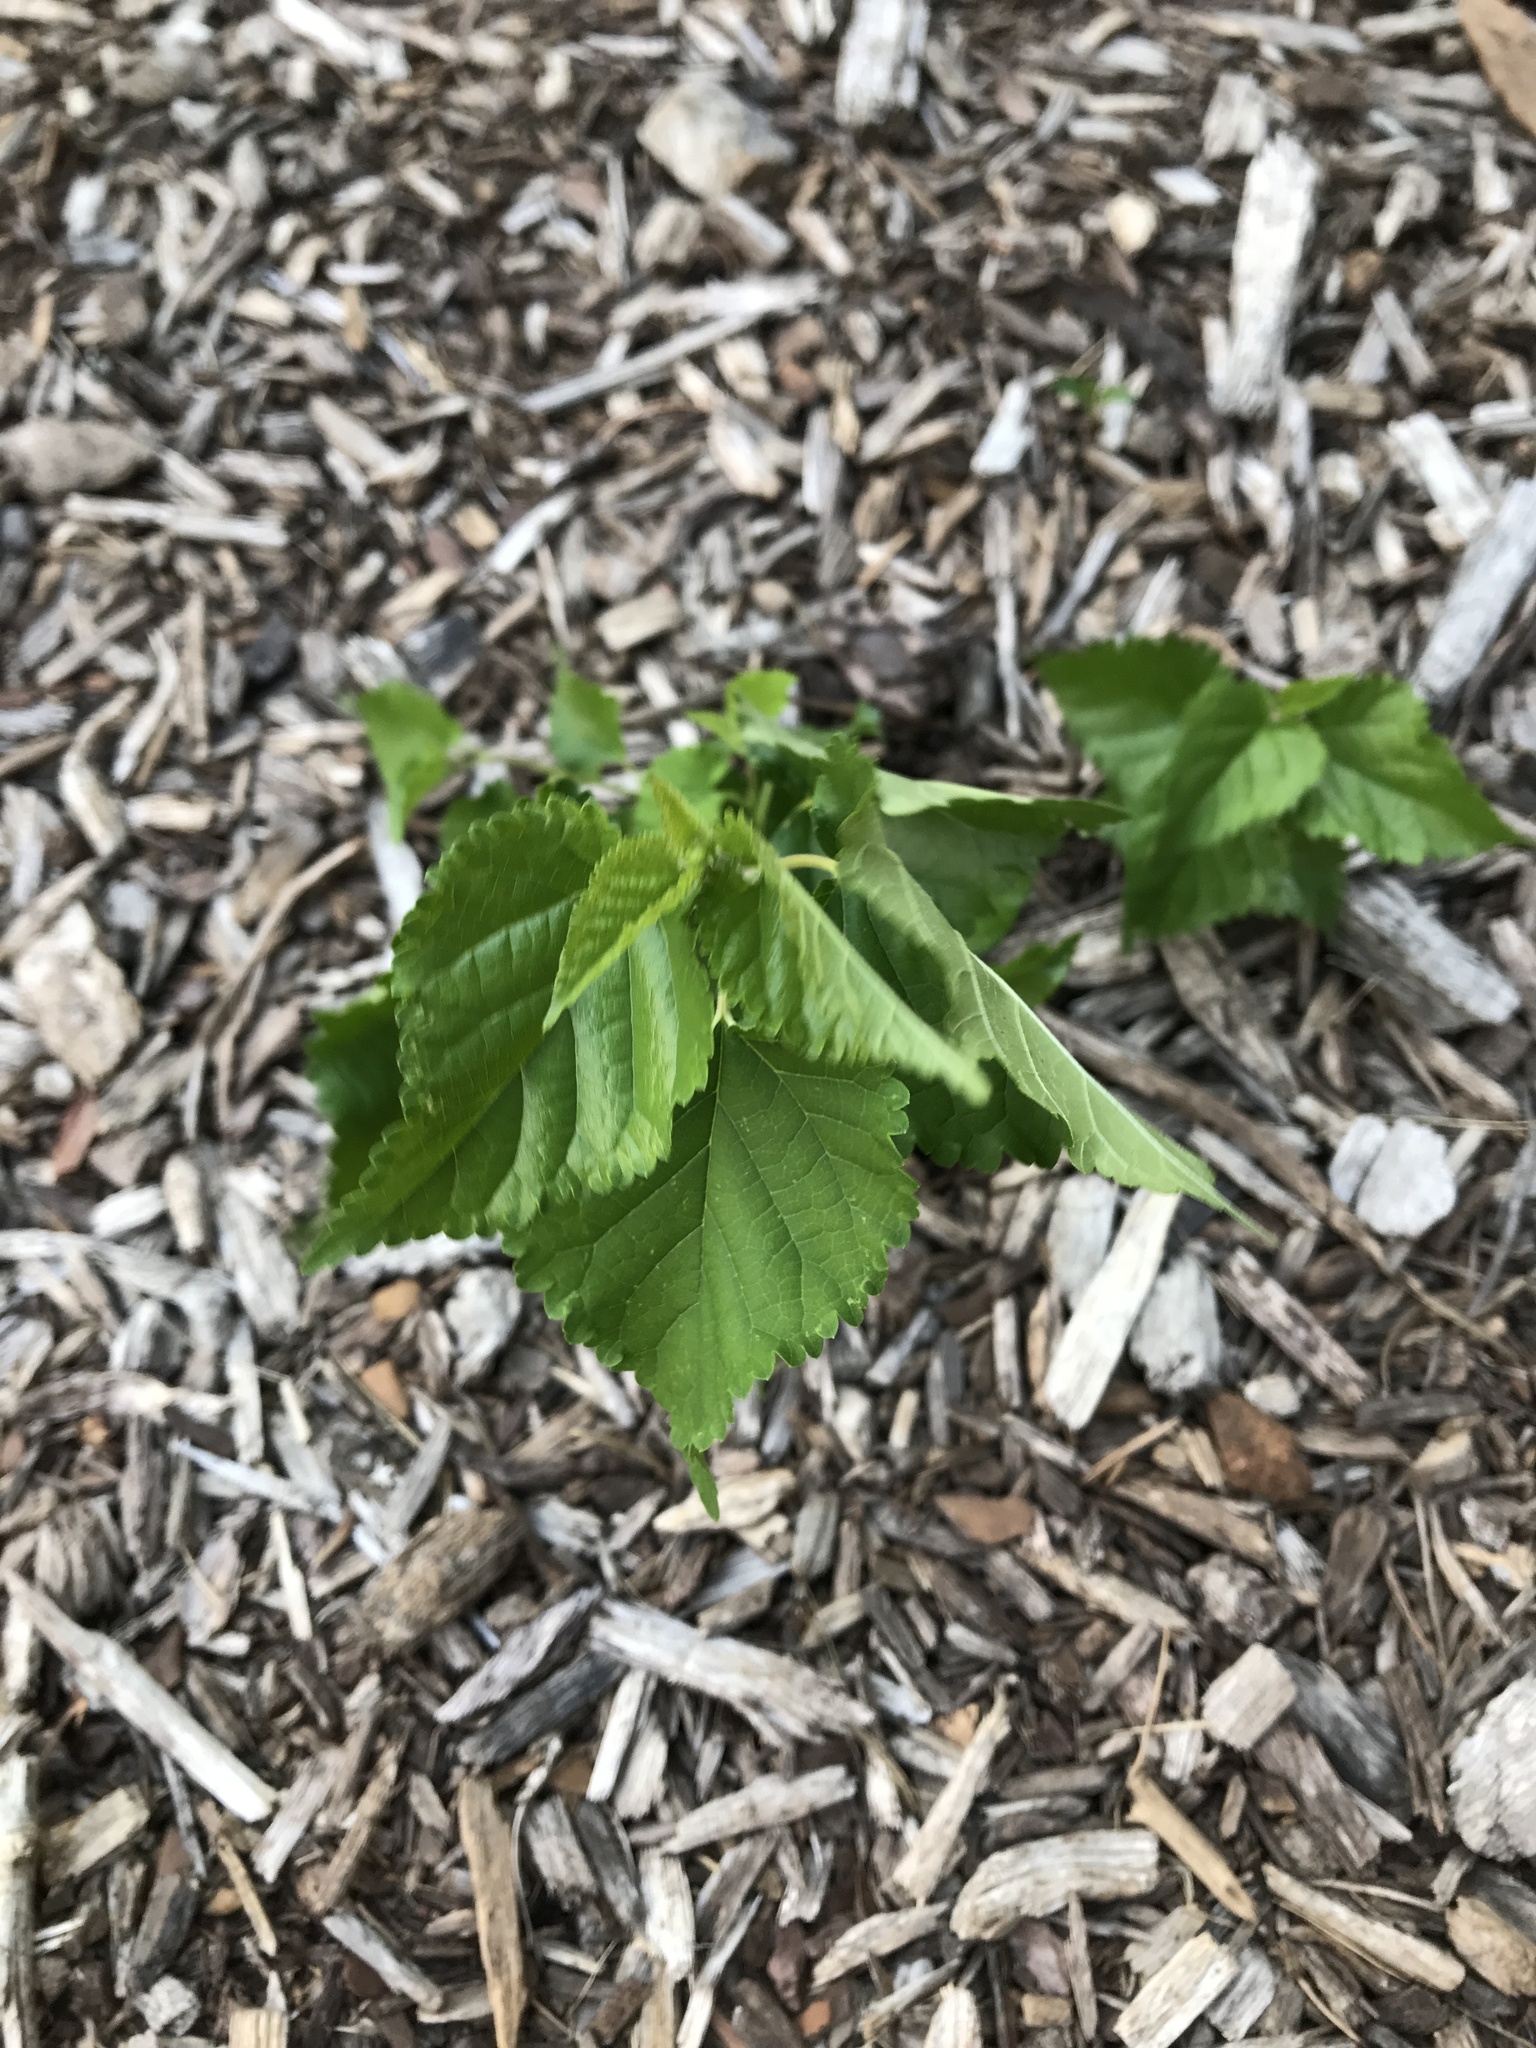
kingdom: Plantae
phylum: Tracheophyta
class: Magnoliopsida
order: Rosales
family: Moraceae
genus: Morus
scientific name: Morus alba
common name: White mulberry
